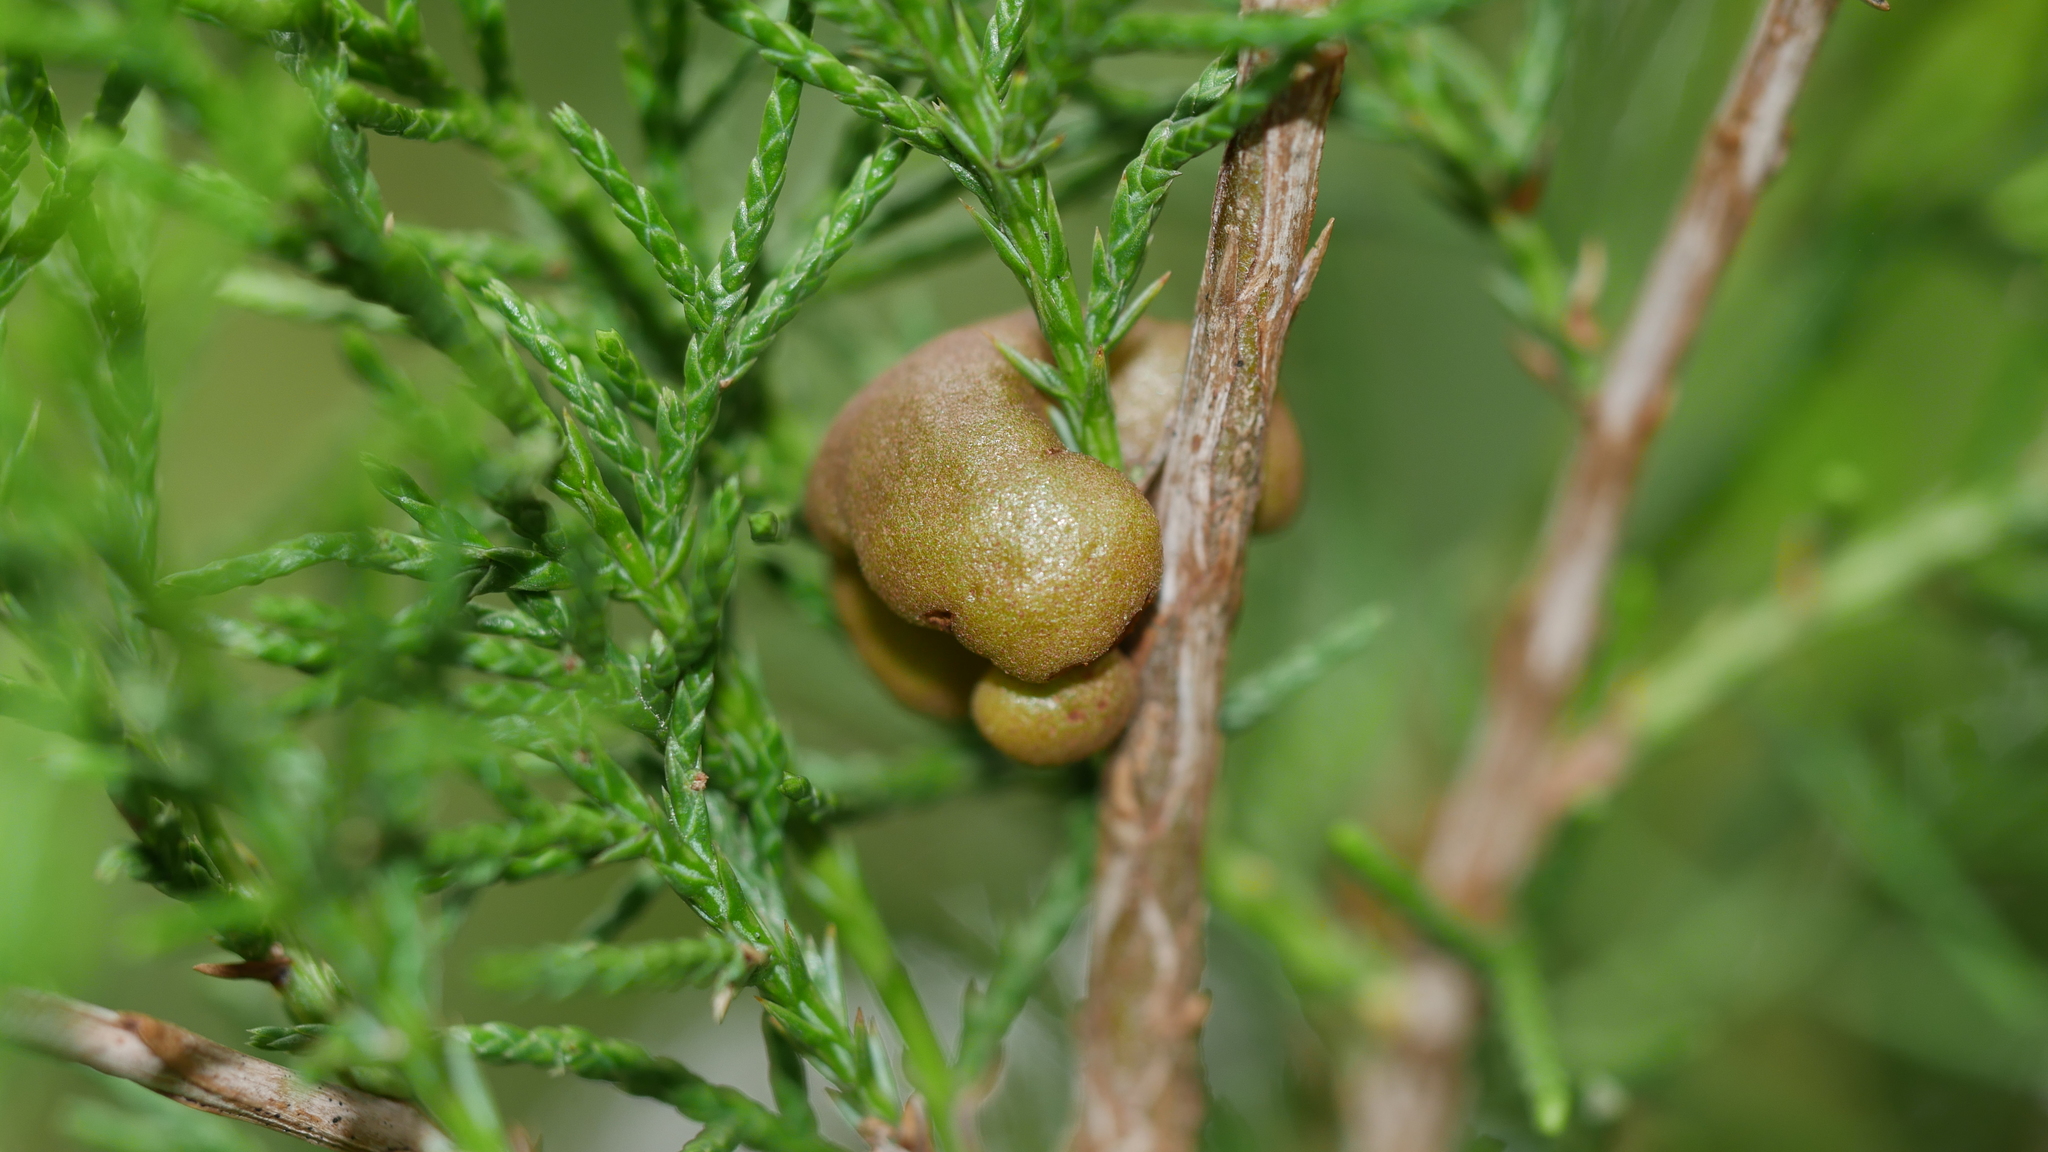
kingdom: Fungi
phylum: Basidiomycota
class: Pucciniomycetes
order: Pucciniales
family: Gymnosporangiaceae
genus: Gymnosporangium
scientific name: Gymnosporangium juniperi-virginianae
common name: Juniper-apple rust
